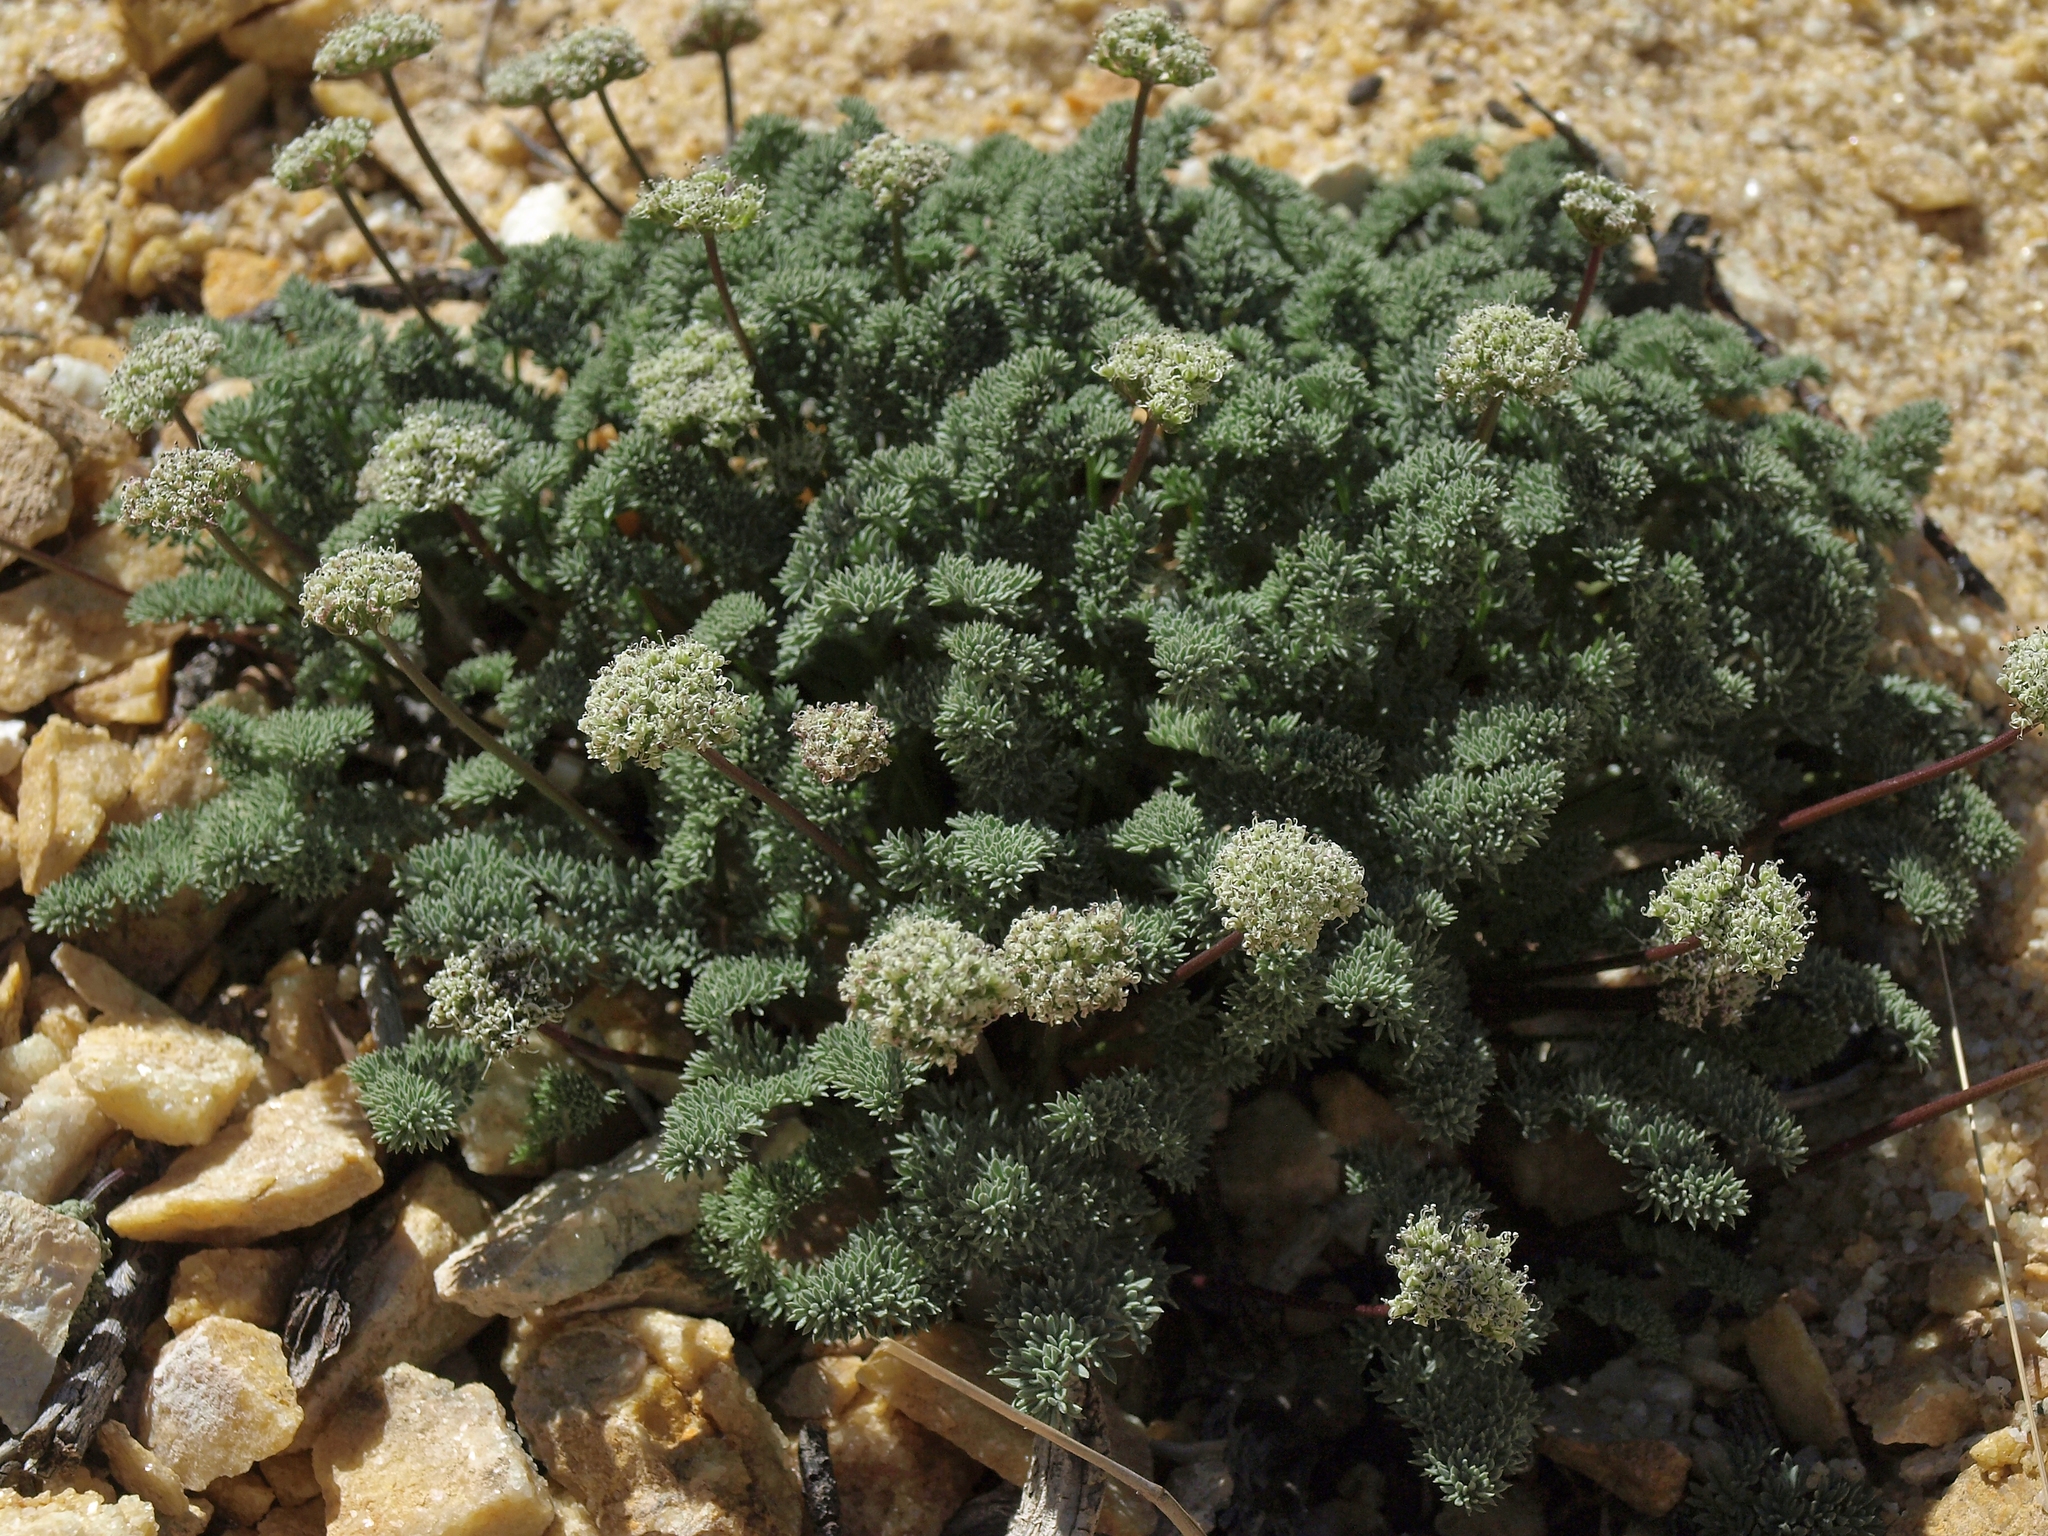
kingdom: Plantae
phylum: Tracheophyta
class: Magnoliopsida
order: Apiales
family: Apiaceae
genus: Aulospermum
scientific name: Aulospermum aboriginum
